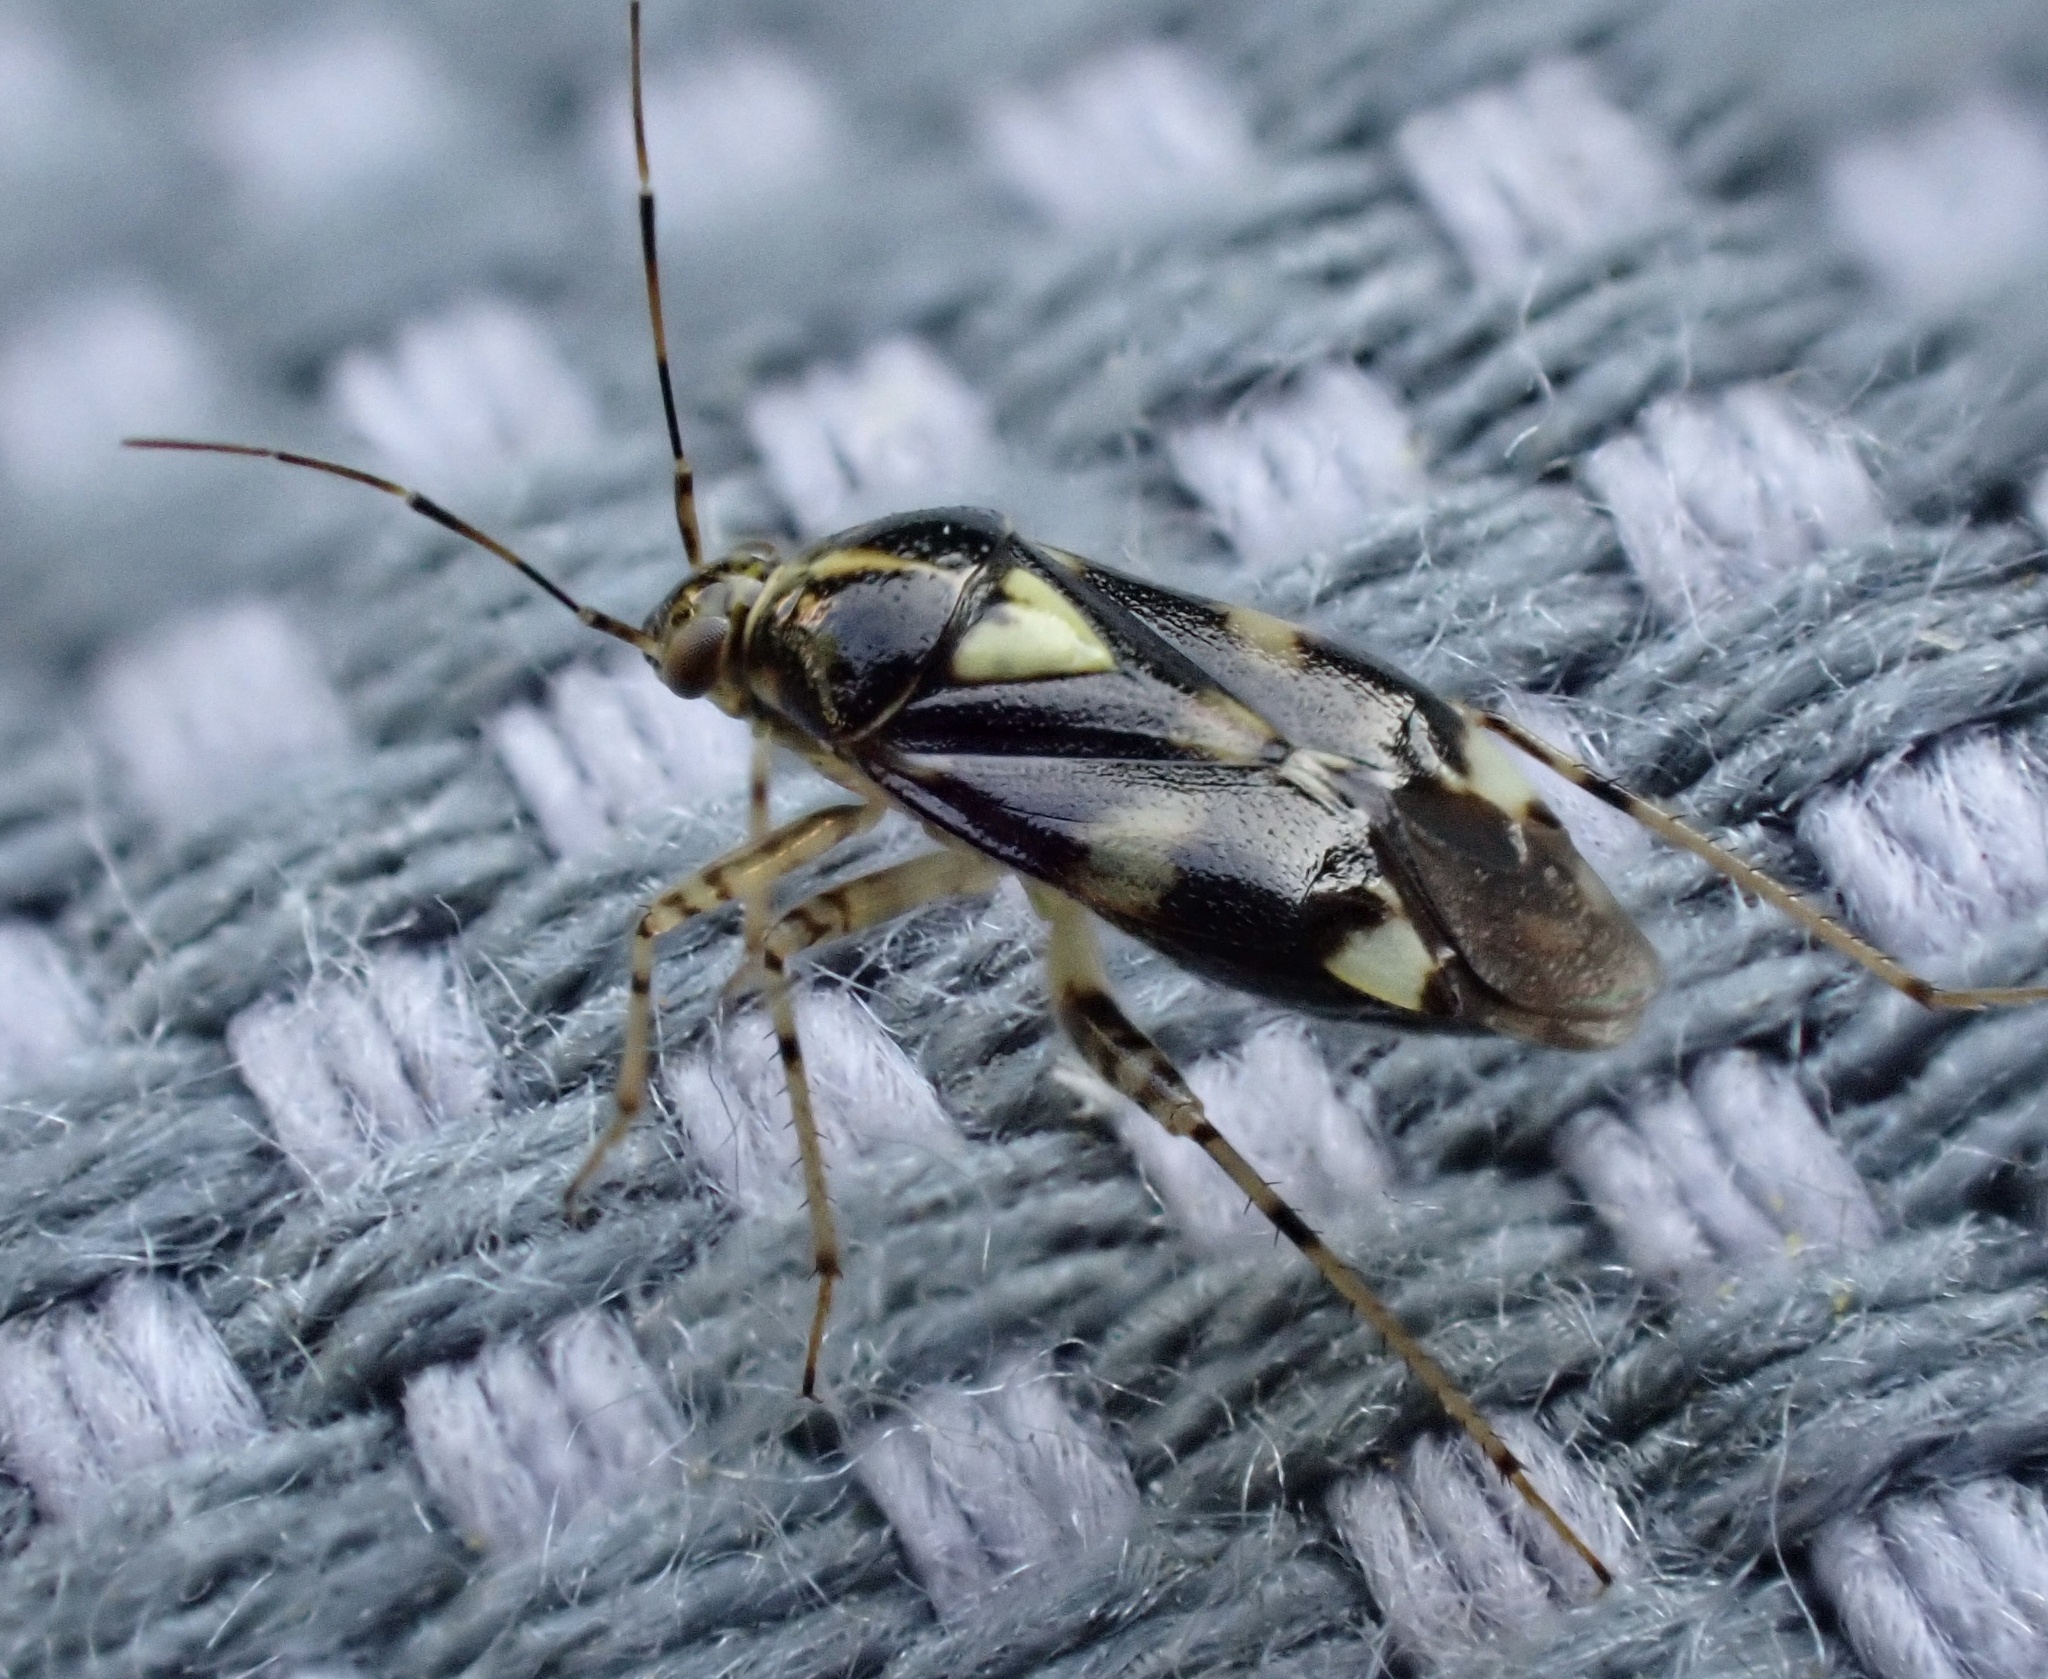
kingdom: Animalia
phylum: Arthropoda
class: Insecta
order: Hemiptera
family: Miridae
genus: Liocoris
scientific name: Liocoris tripustulatus
